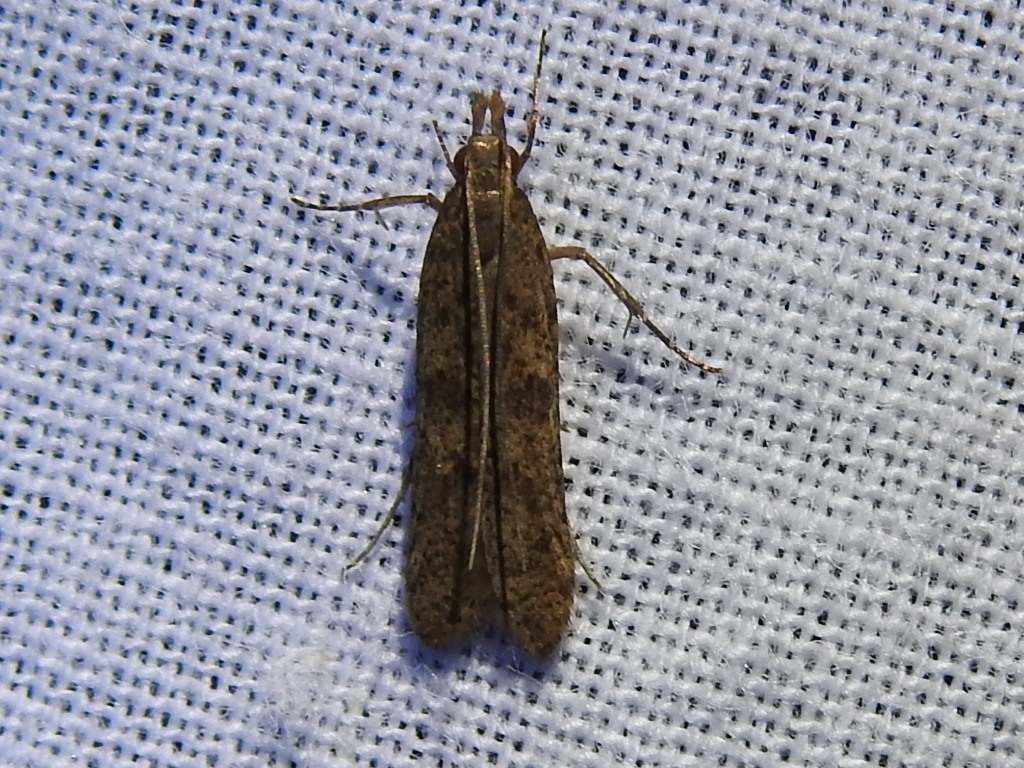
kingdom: Animalia
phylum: Arthropoda
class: Insecta
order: Lepidoptera
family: Gelechiidae
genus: Dichomeris
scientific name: Dichomeris ligulella
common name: Moth
